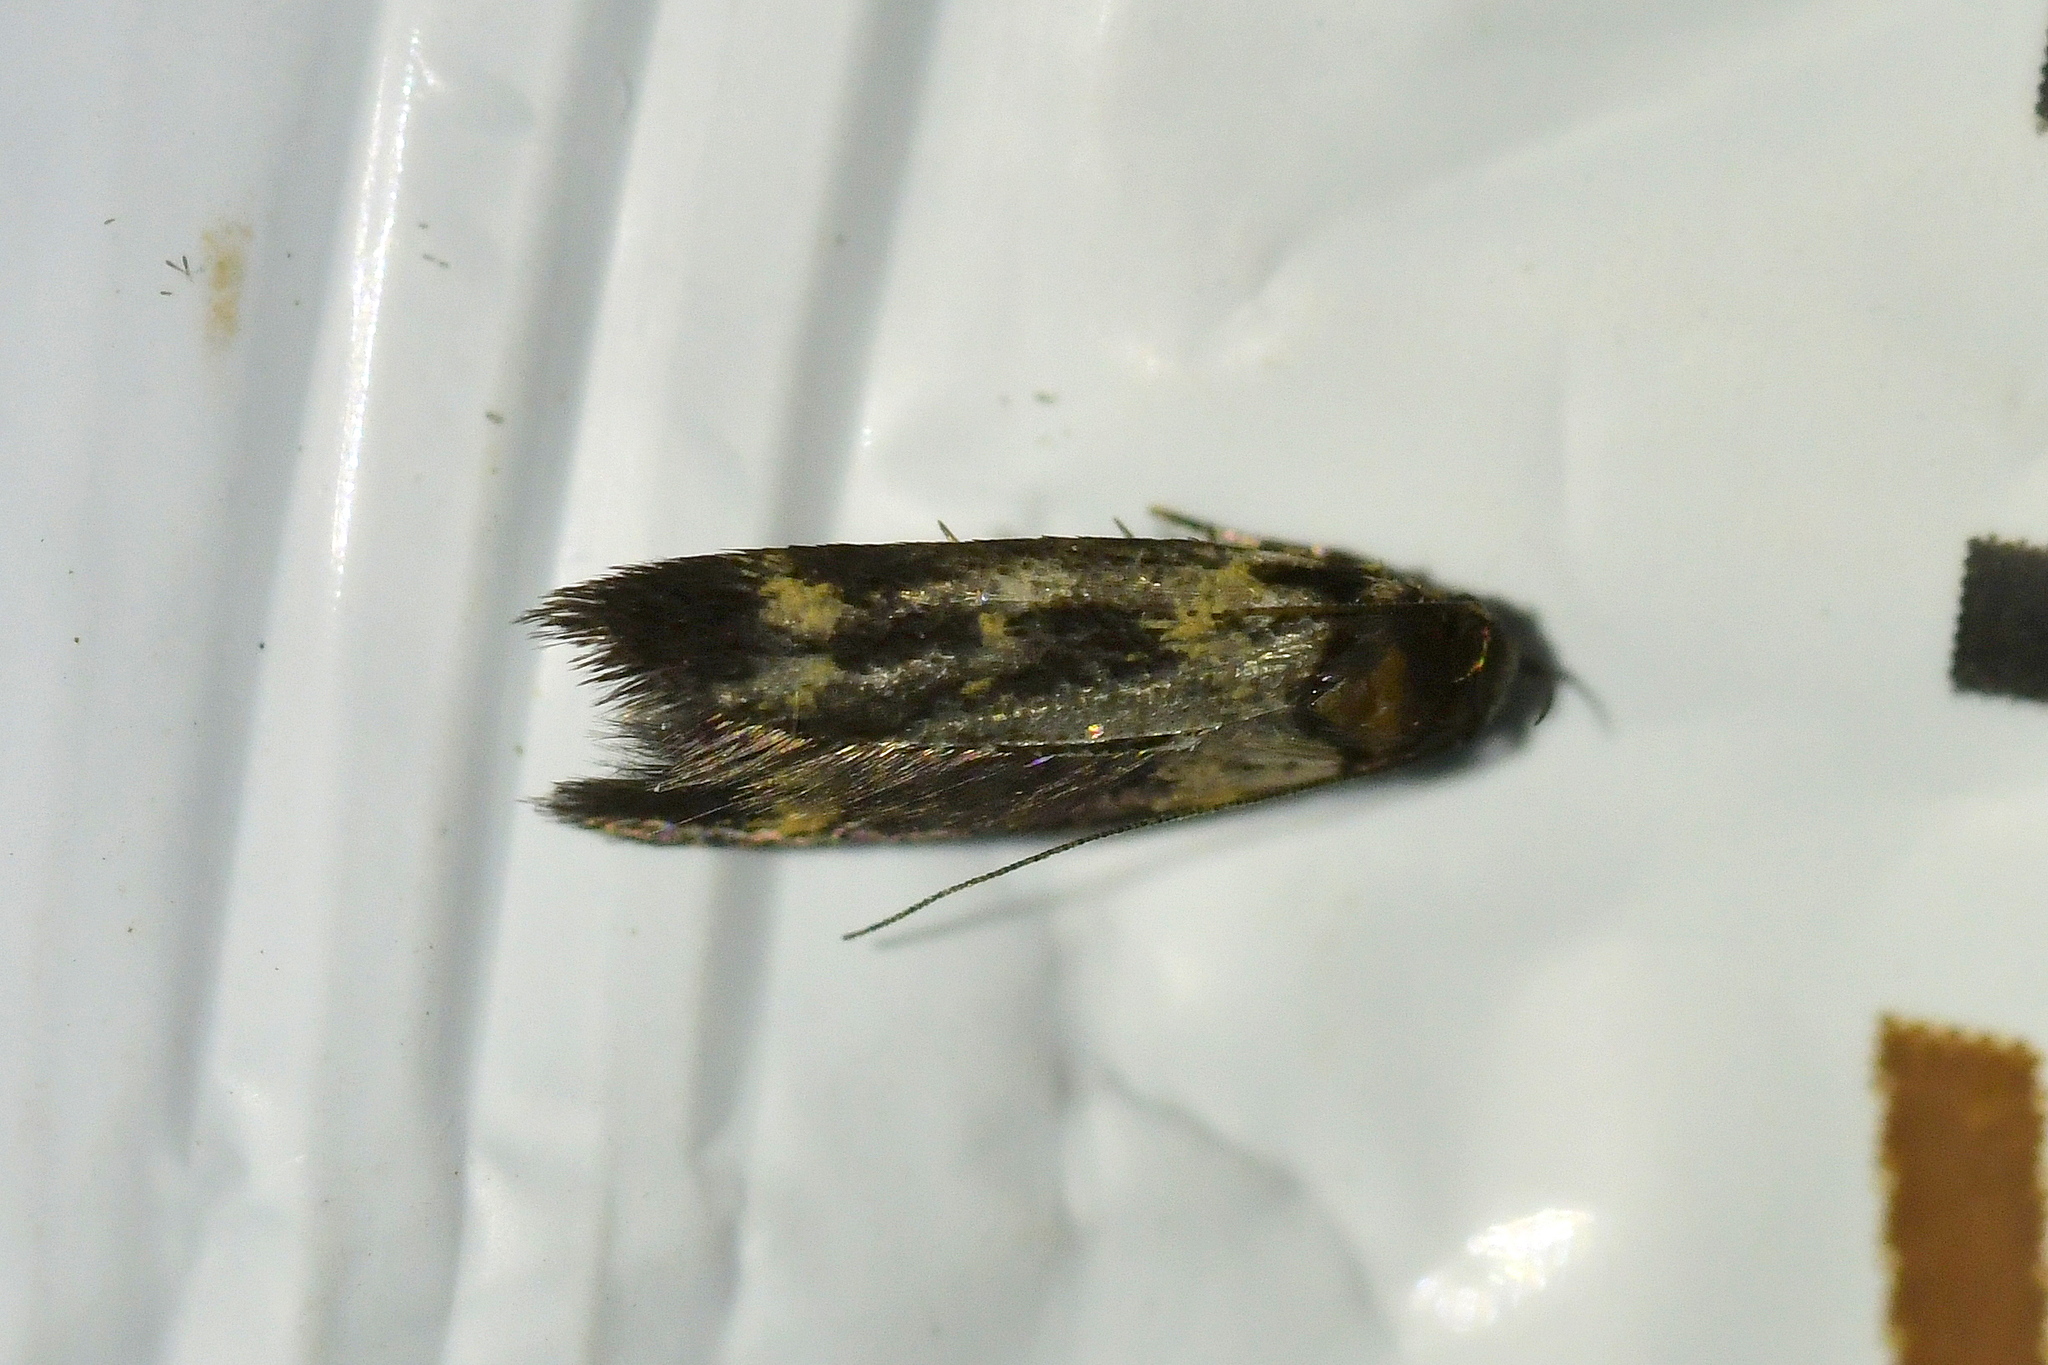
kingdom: Animalia
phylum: Arthropoda
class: Insecta
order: Lepidoptera
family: Oecophoridae
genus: Schiffermuelleria
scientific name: Schiffermuelleria orthophanes
